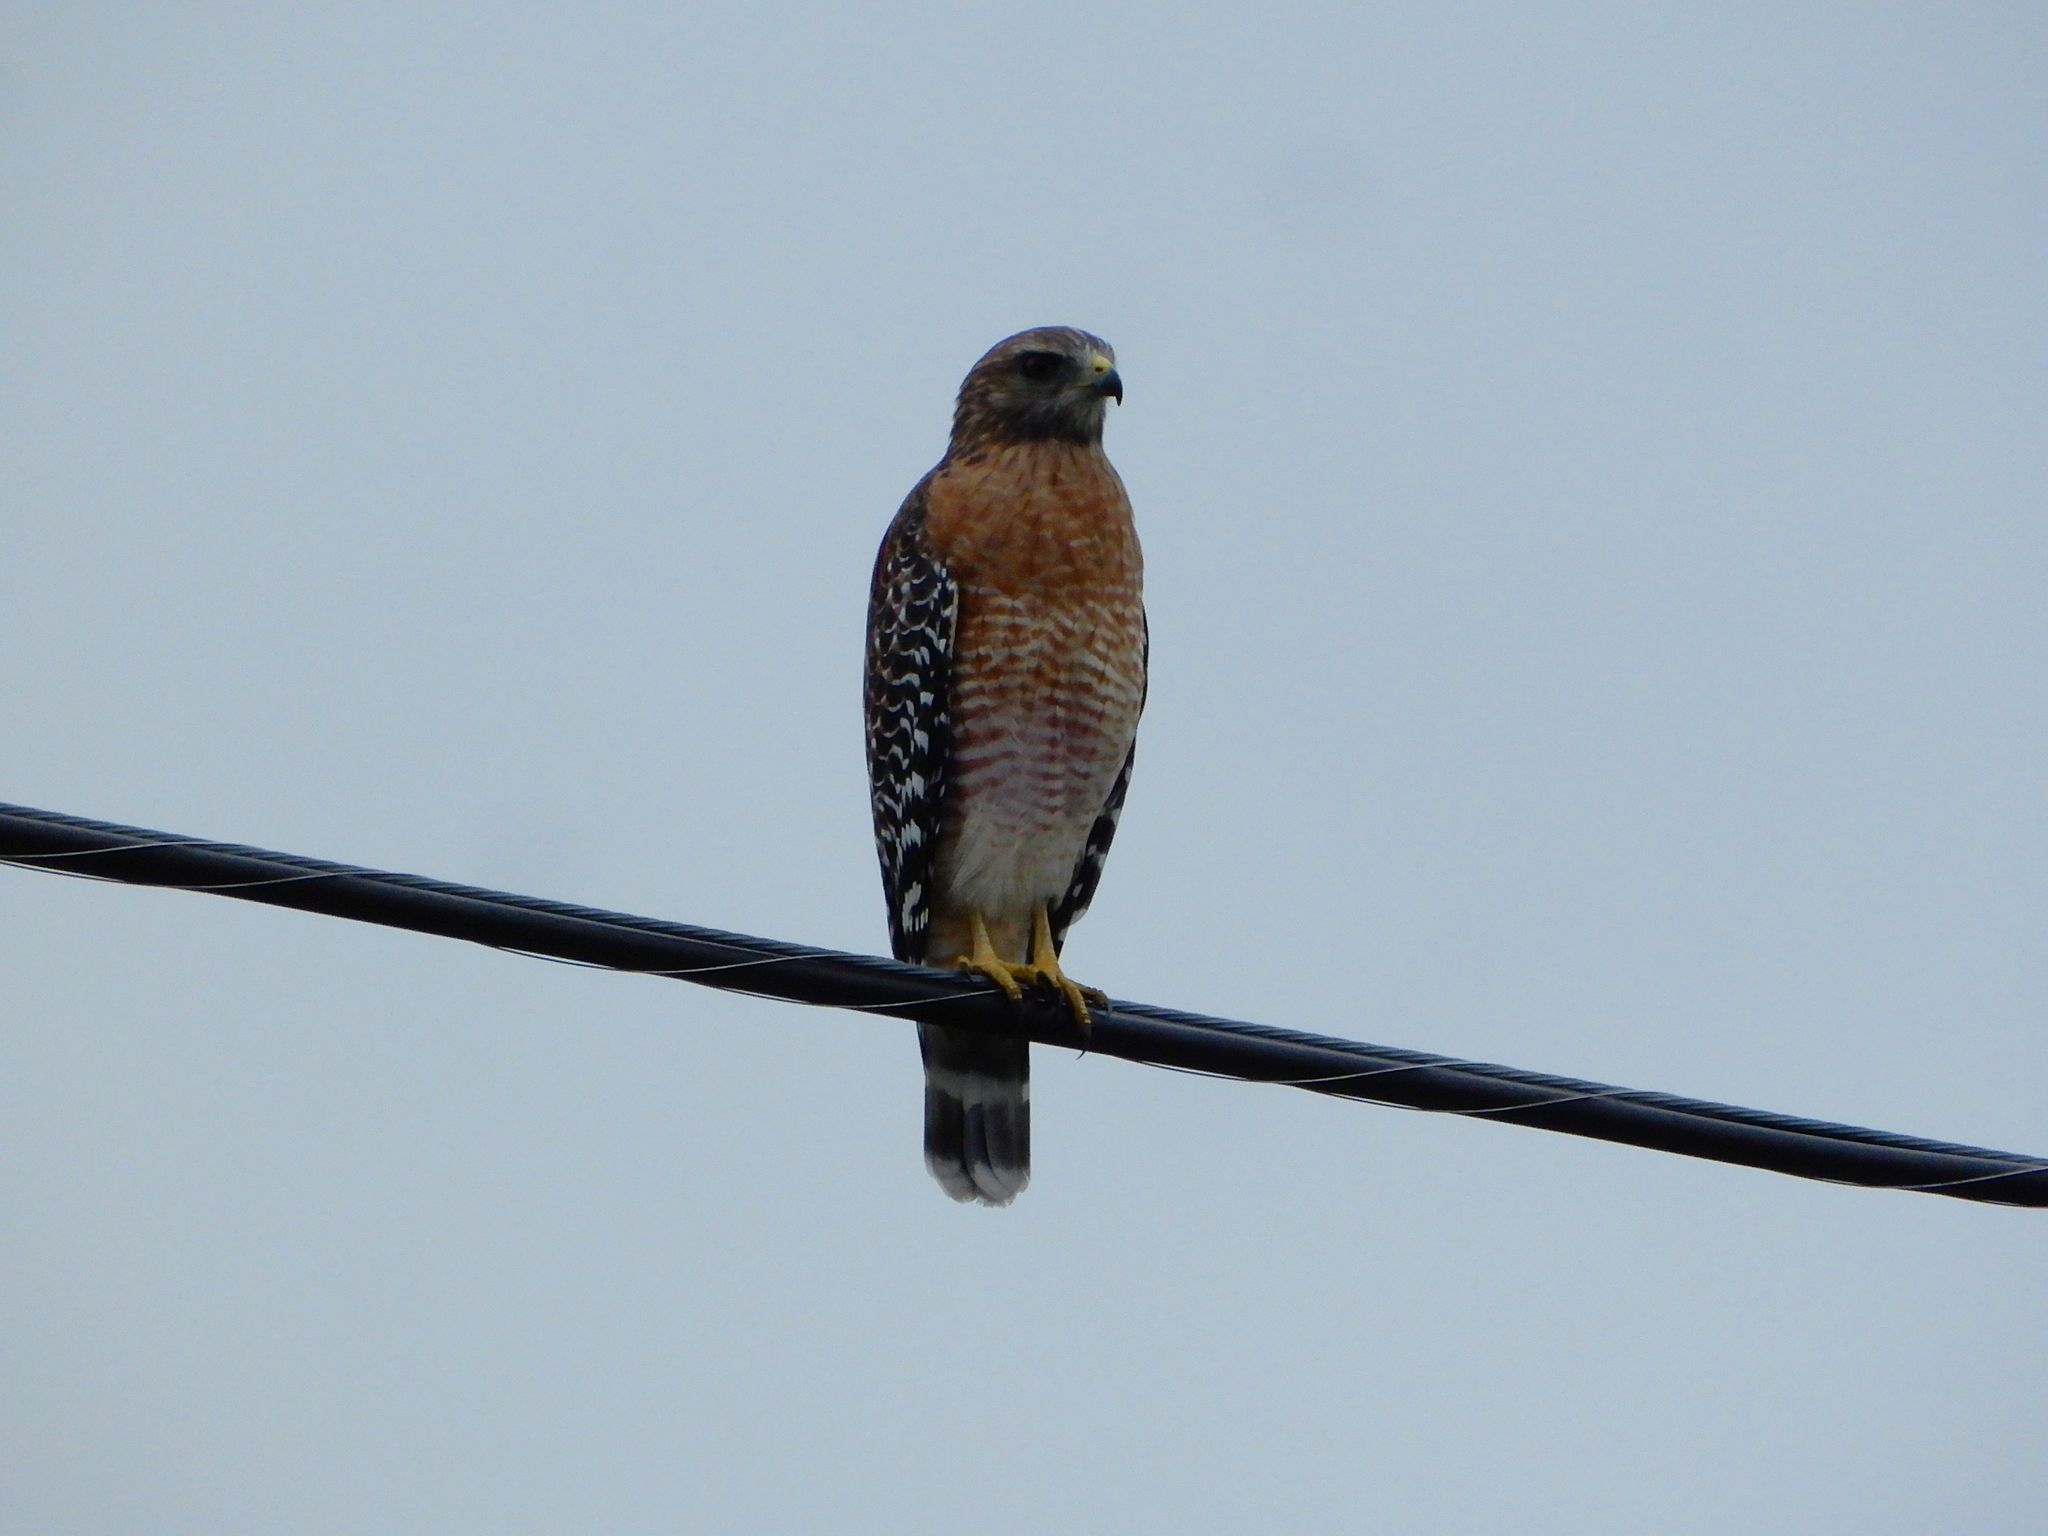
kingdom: Animalia
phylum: Chordata
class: Aves
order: Accipitriformes
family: Accipitridae
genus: Buteo
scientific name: Buteo lineatus
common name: Red-shouldered hawk
